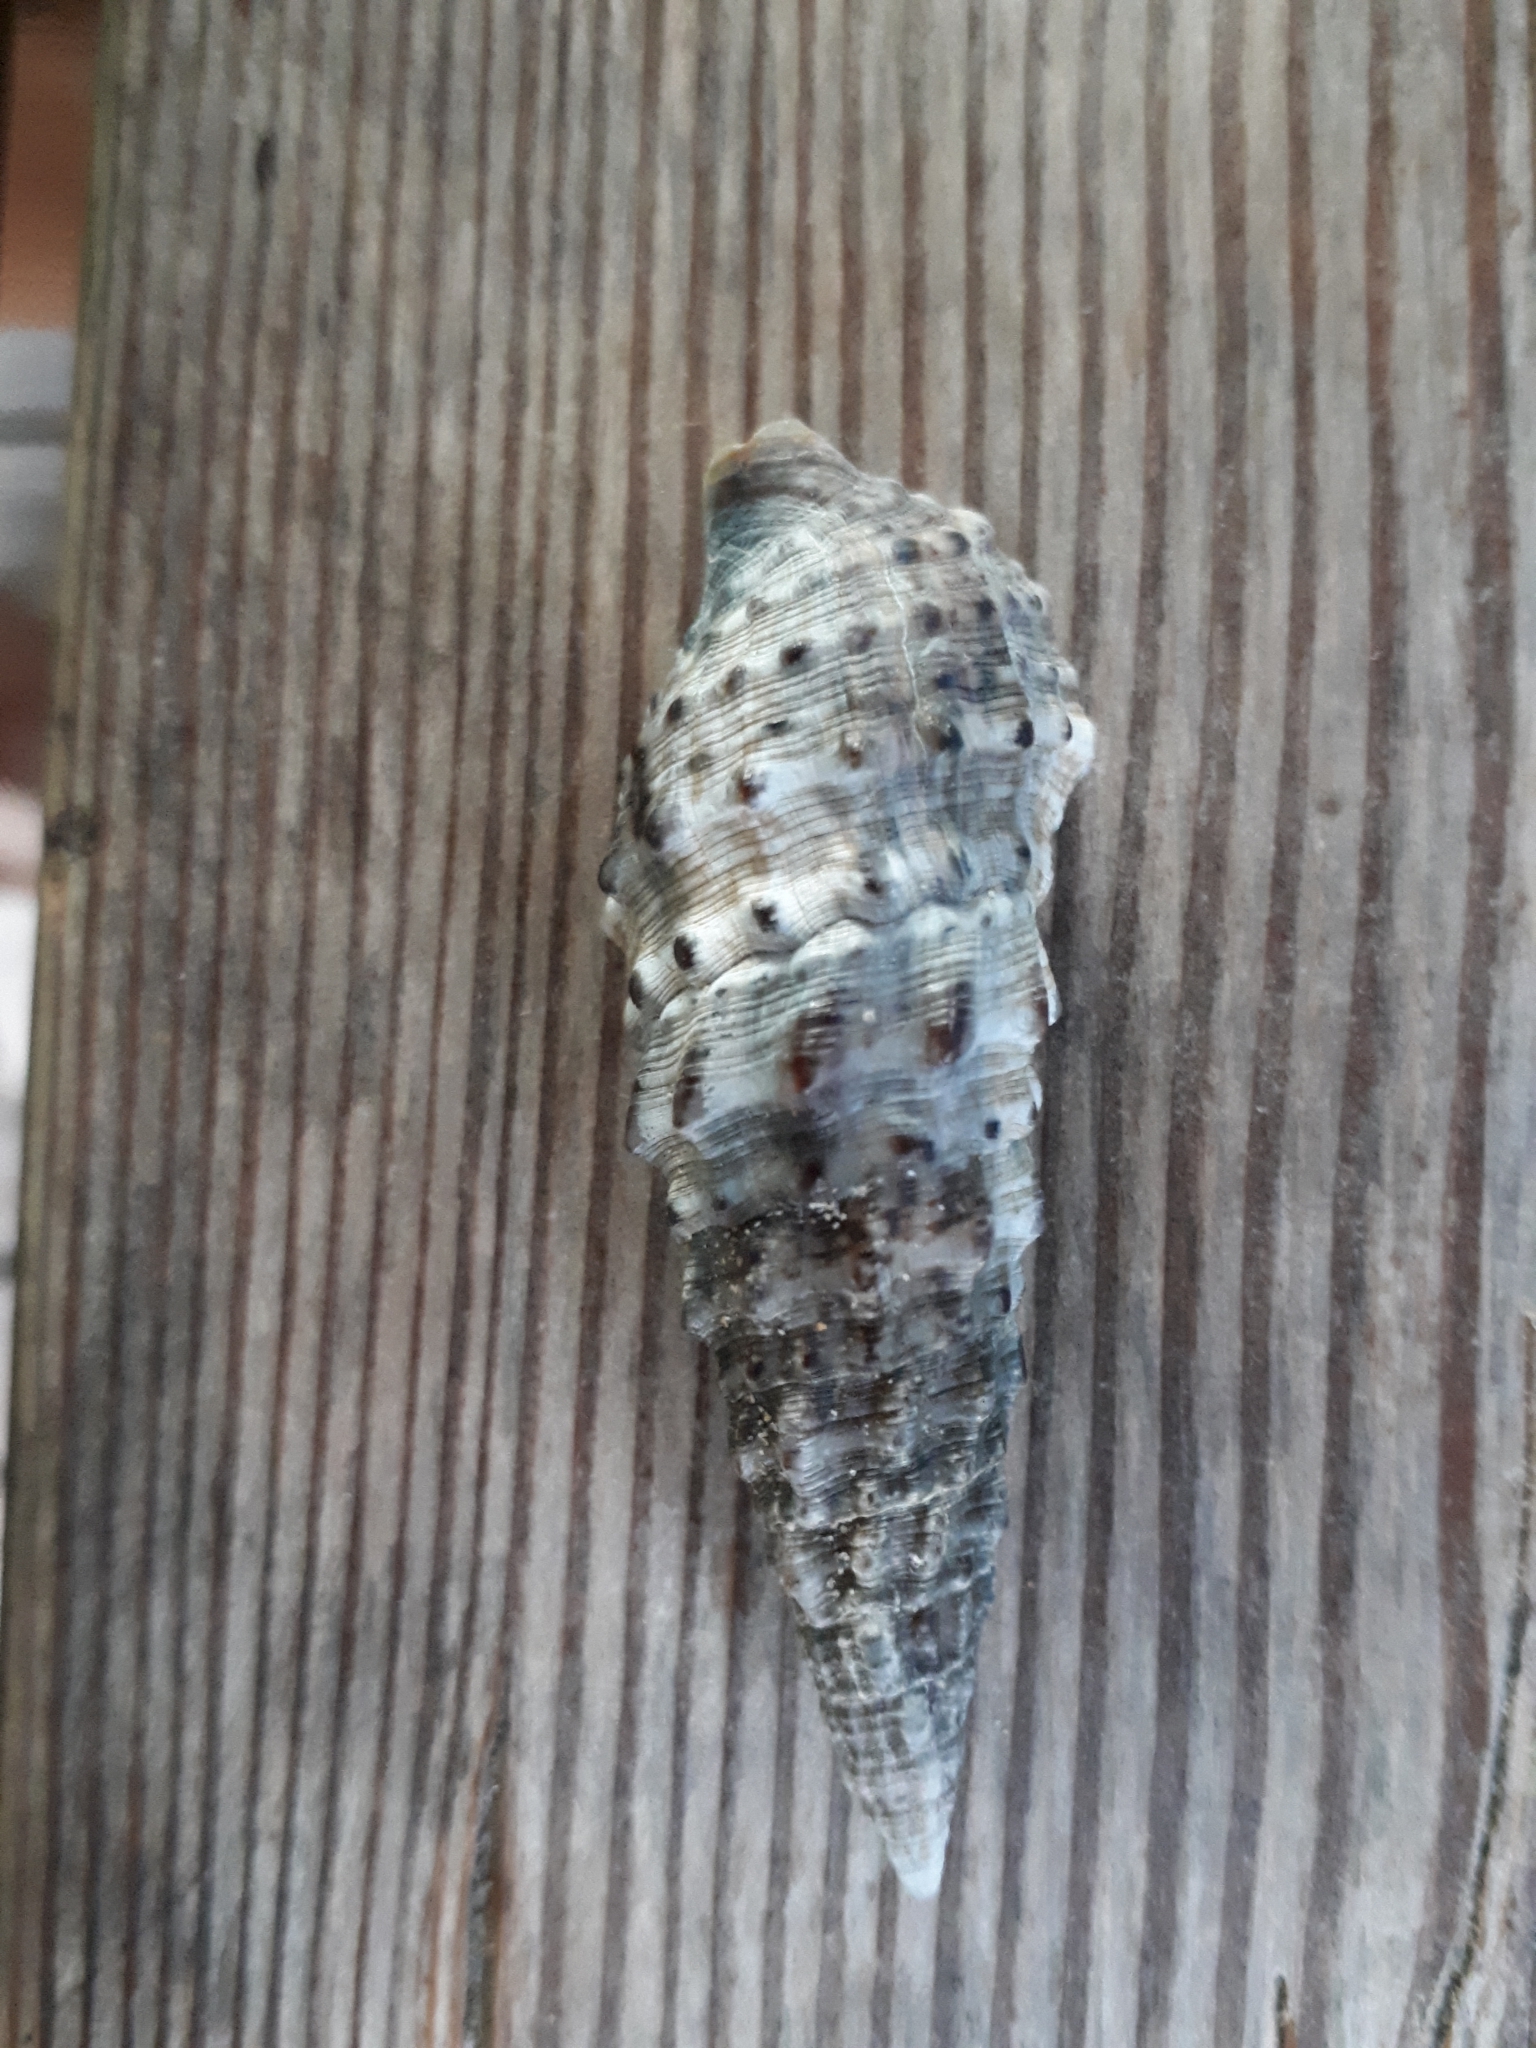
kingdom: Animalia
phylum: Mollusca
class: Gastropoda
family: Cerithiidae
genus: Cerithium
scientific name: Cerithium vulgatum
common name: European cerith
